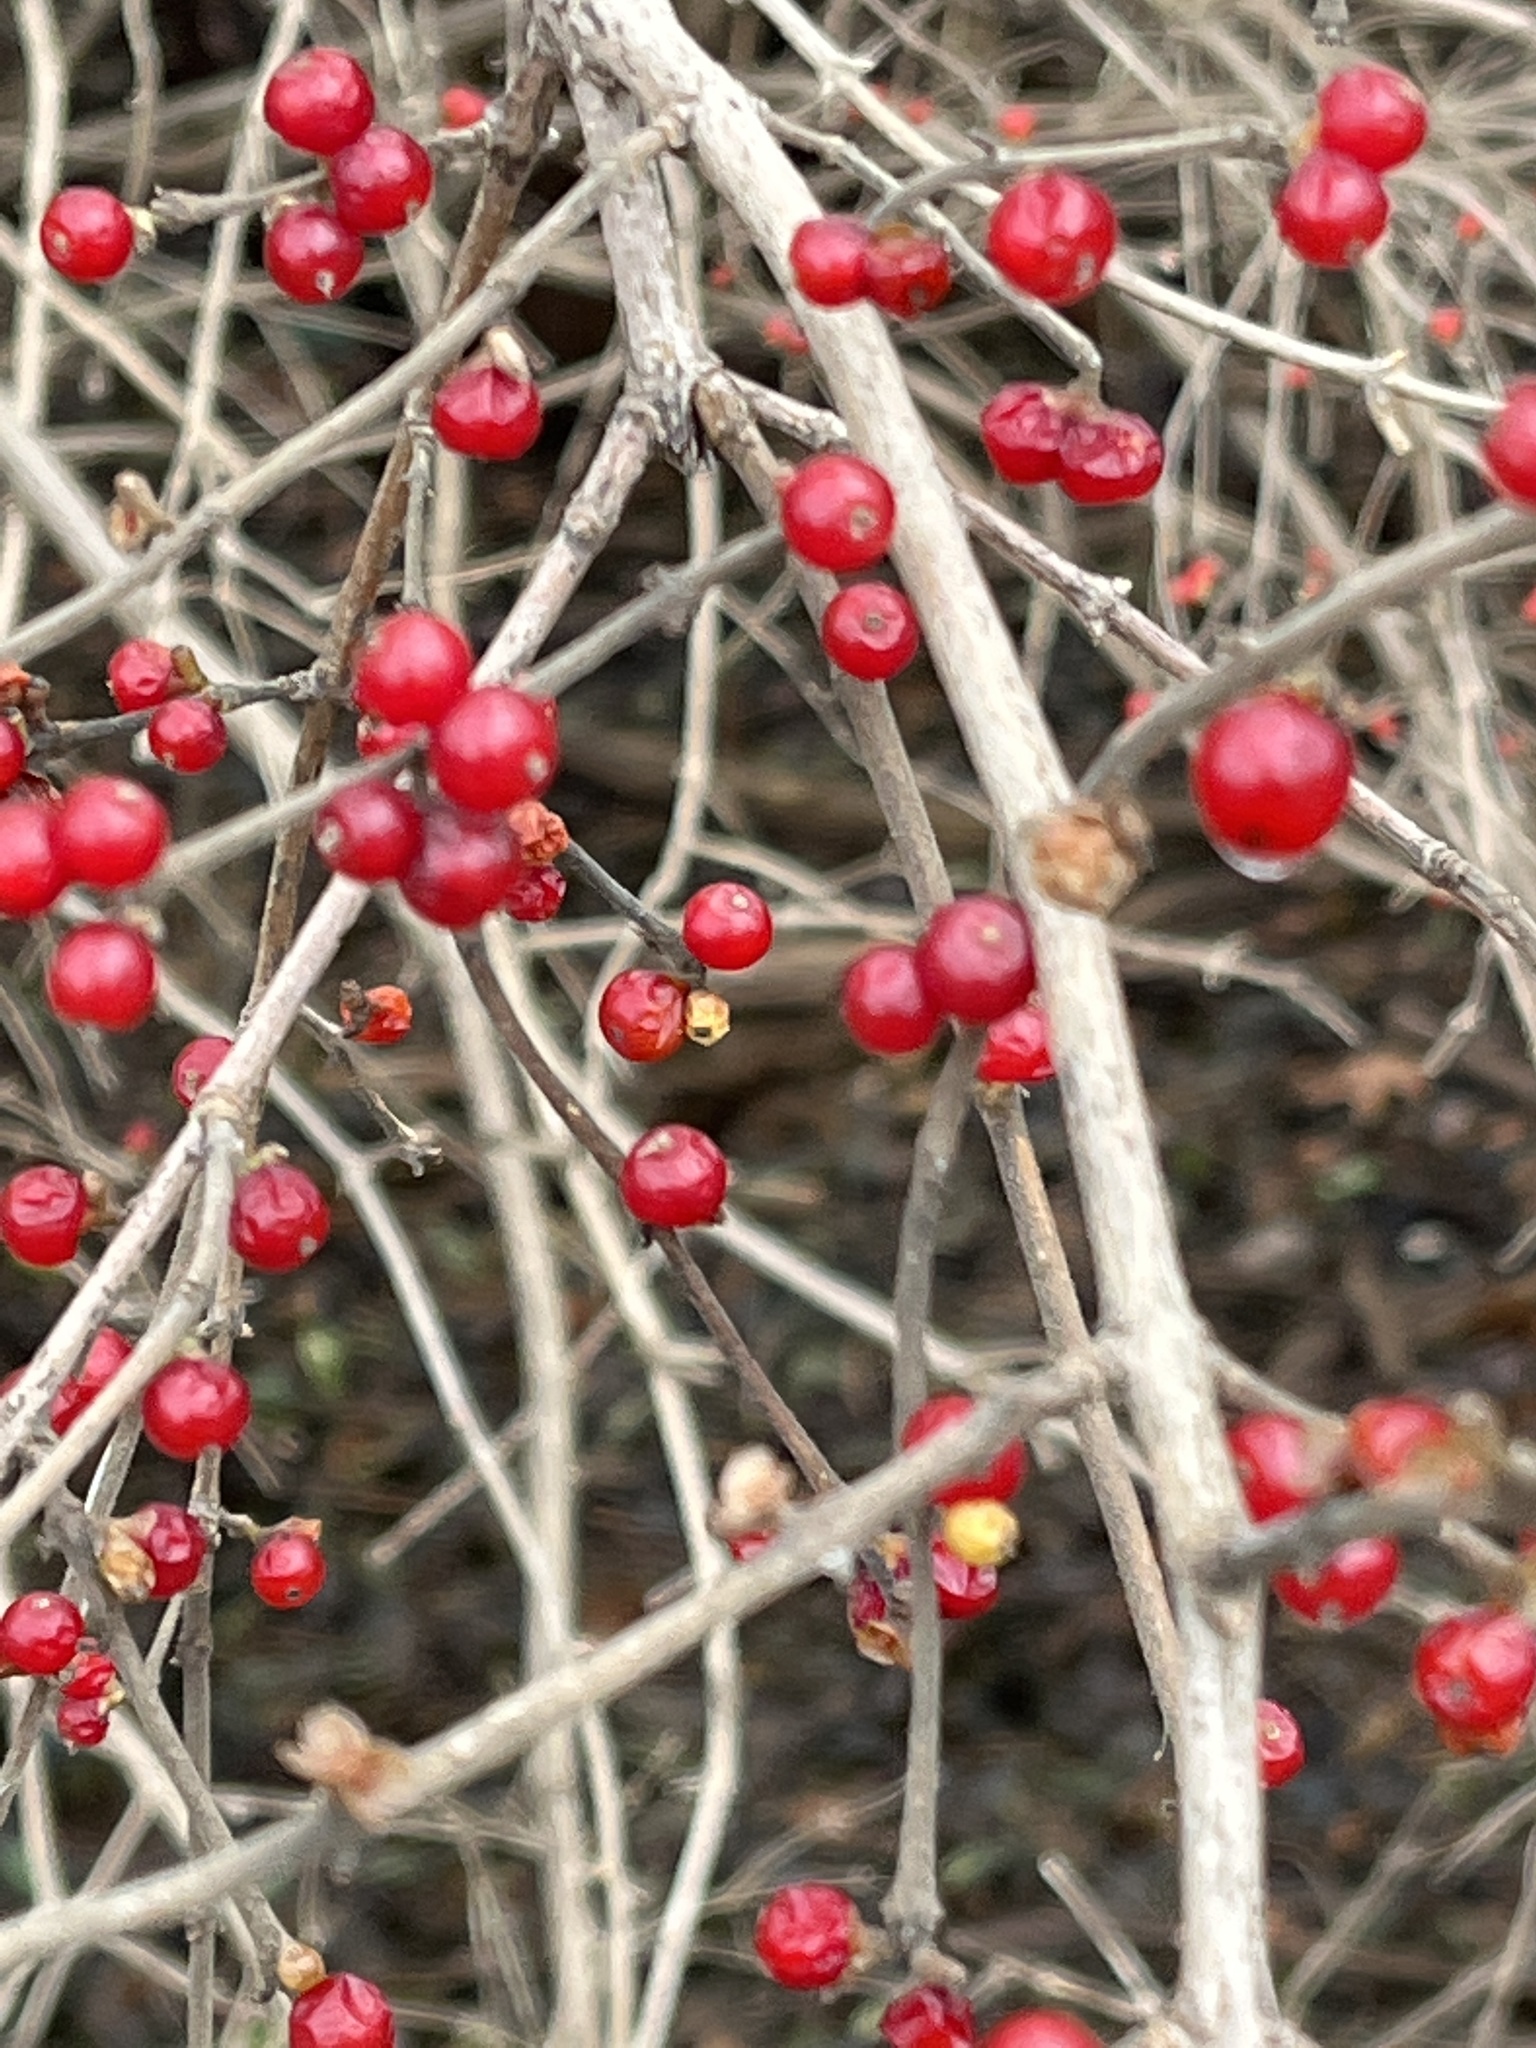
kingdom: Plantae
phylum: Tracheophyta
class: Magnoliopsida
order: Dipsacales
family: Caprifoliaceae
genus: Lonicera
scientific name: Lonicera maackii
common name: Amur honeysuckle
